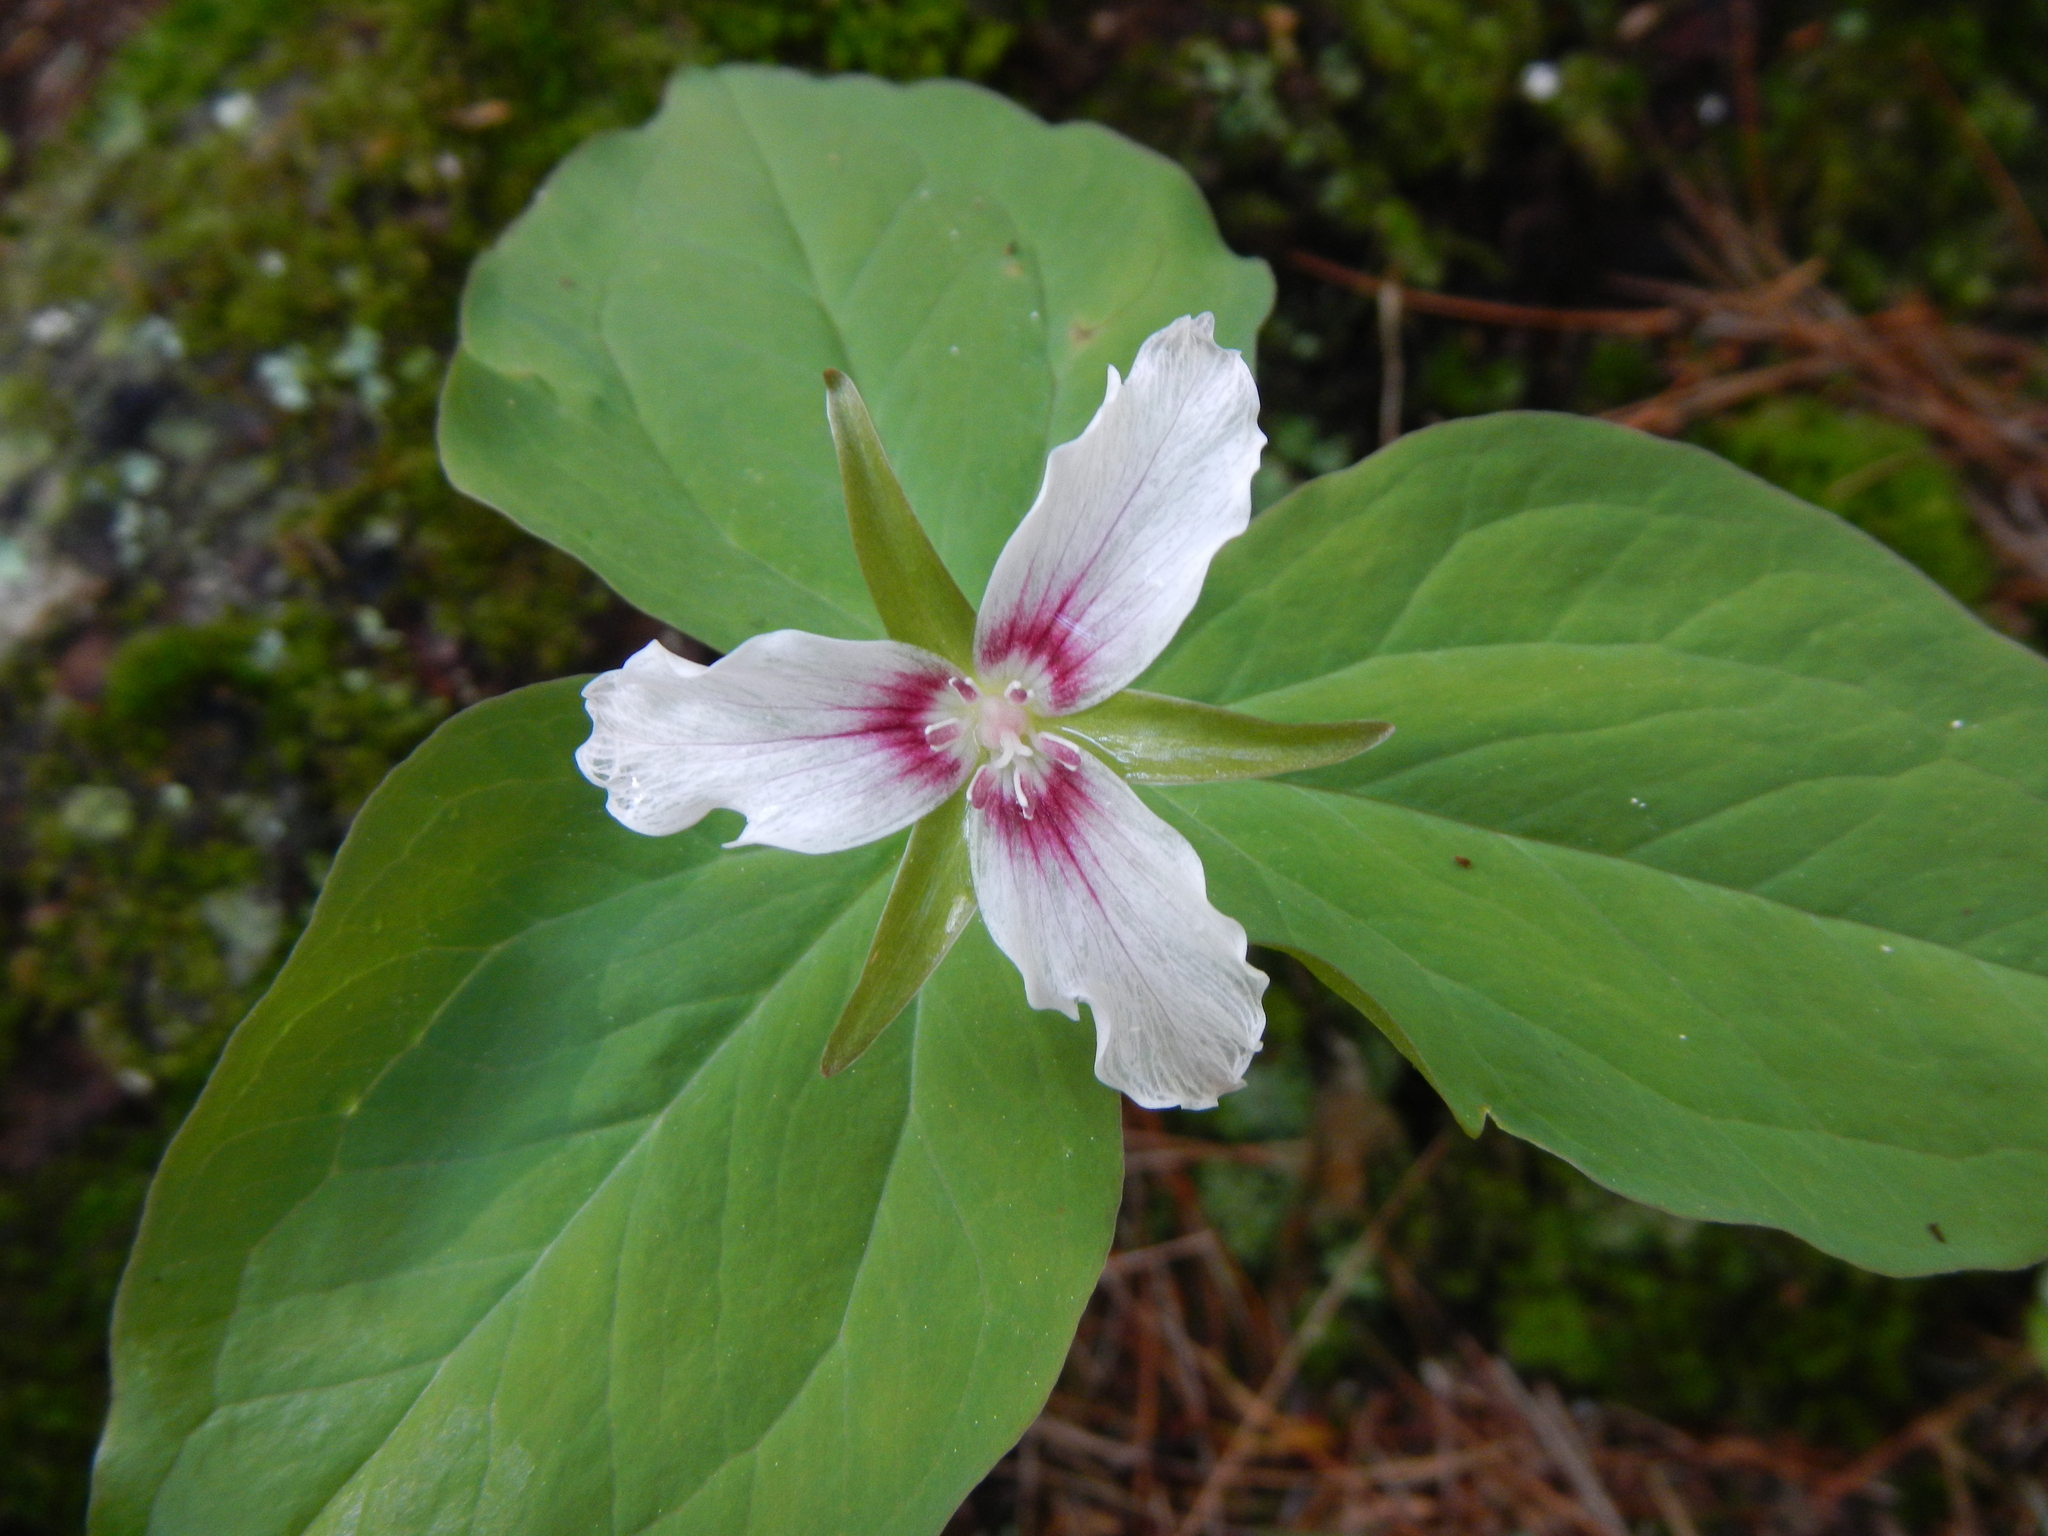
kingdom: Plantae
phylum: Tracheophyta
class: Liliopsida
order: Liliales
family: Melanthiaceae
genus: Trillium
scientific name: Trillium undulatum
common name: Paint trillium
